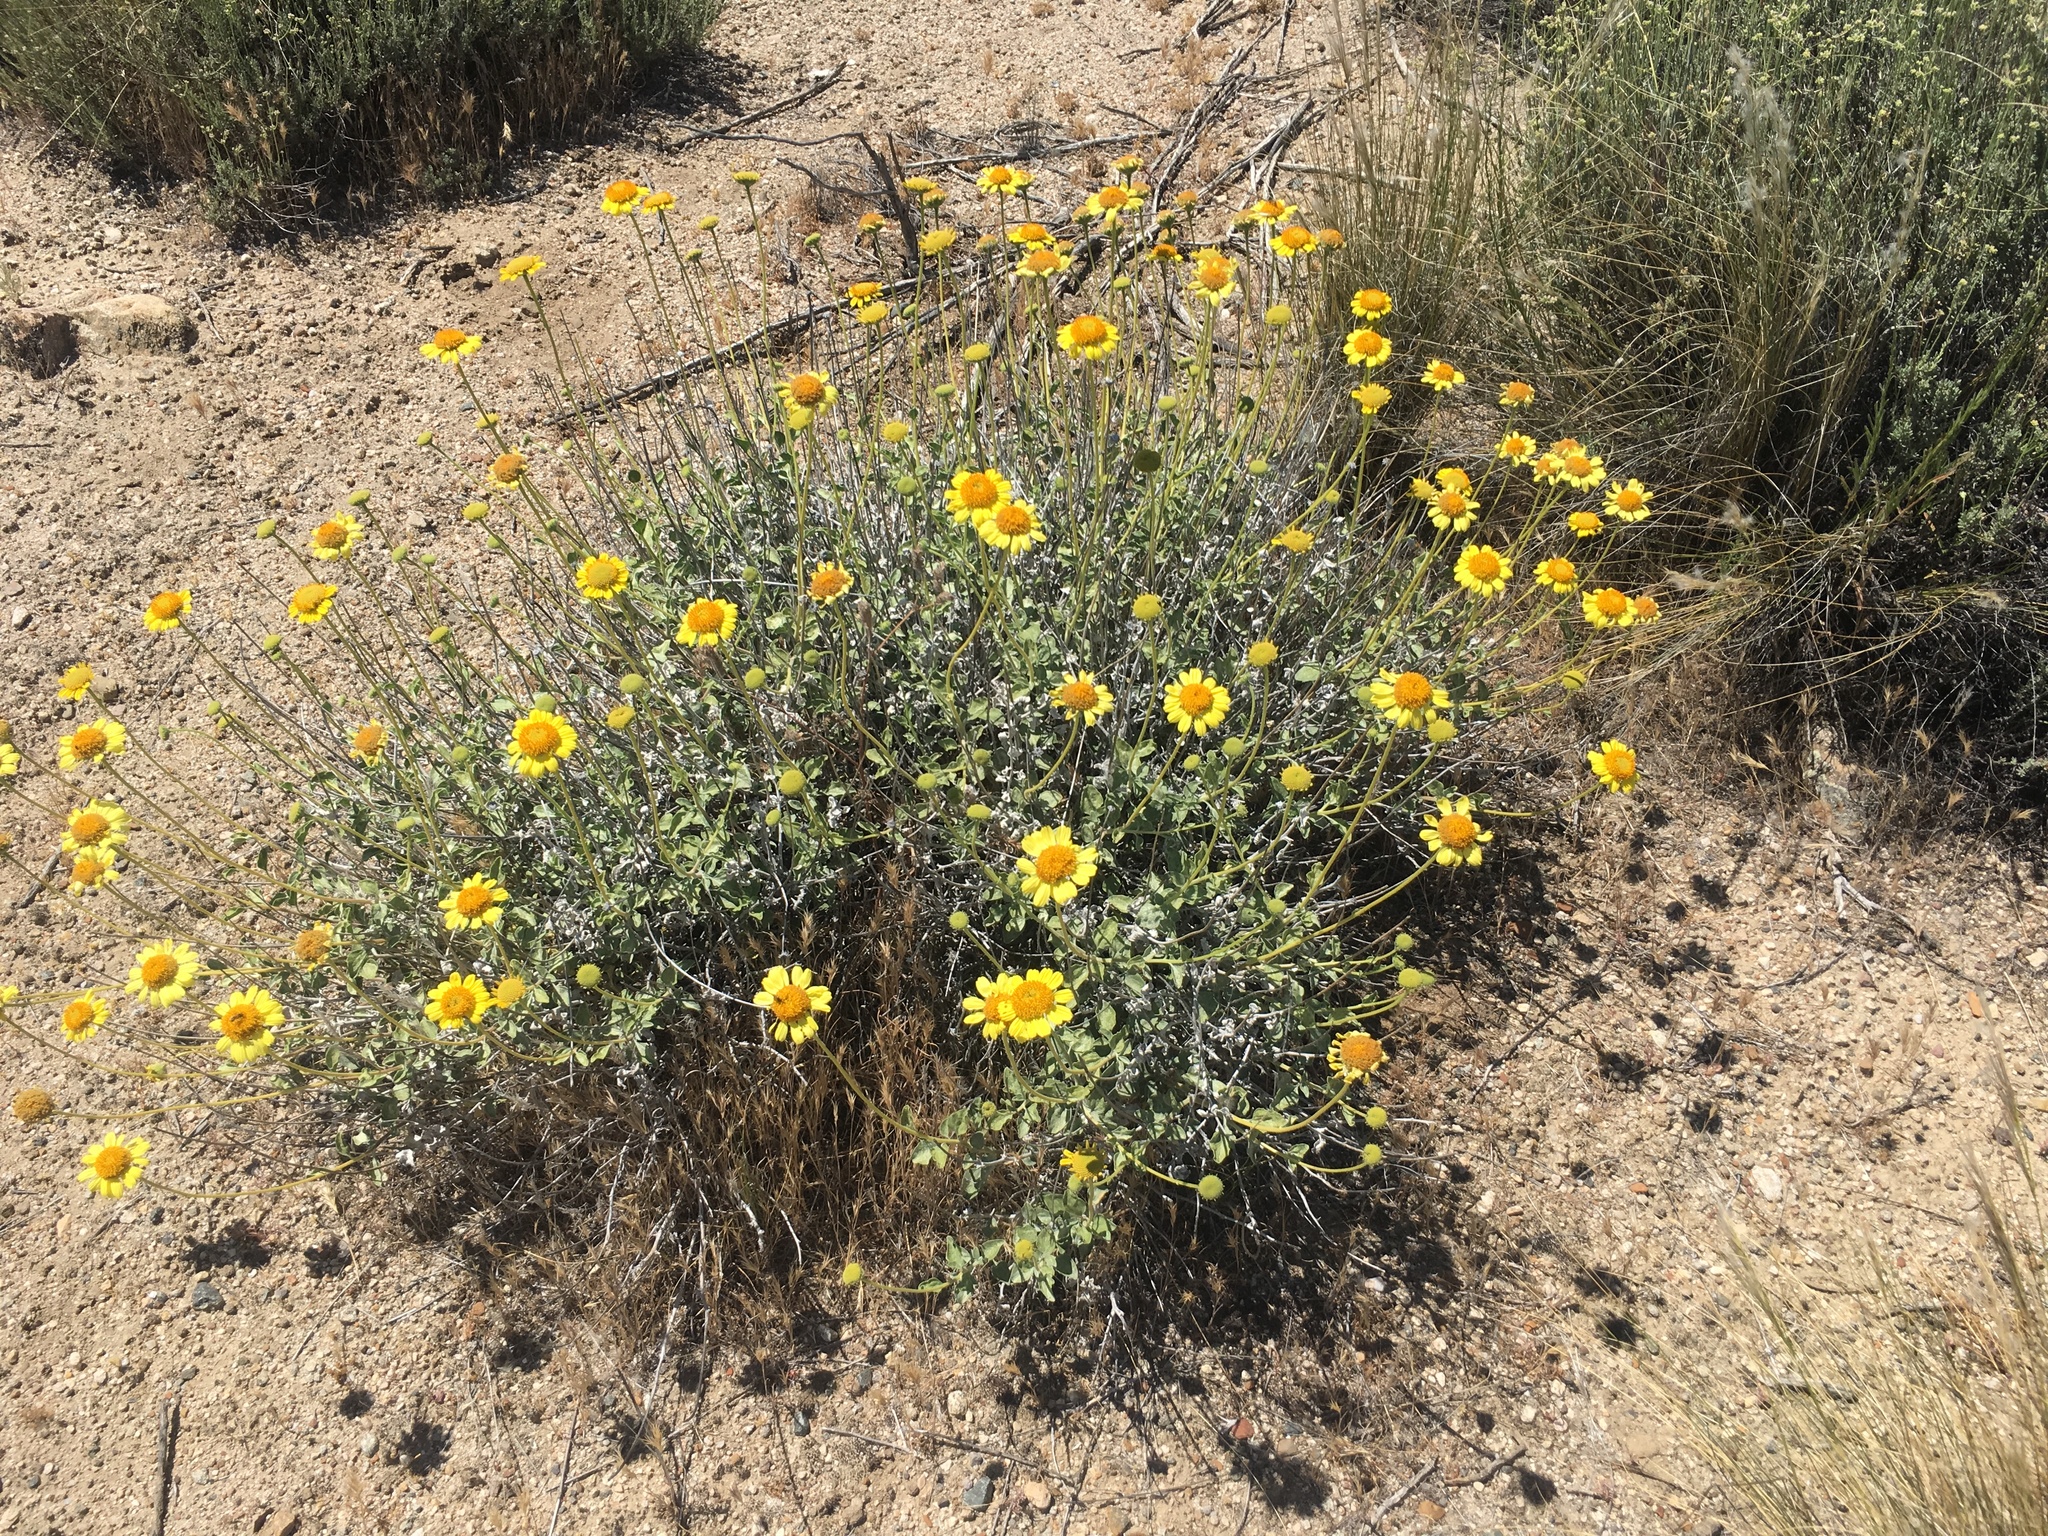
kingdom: Plantae
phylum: Tracheophyta
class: Magnoliopsida
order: Asterales
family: Asteraceae
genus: Encelia
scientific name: Encelia actoni
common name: Acton encelia
